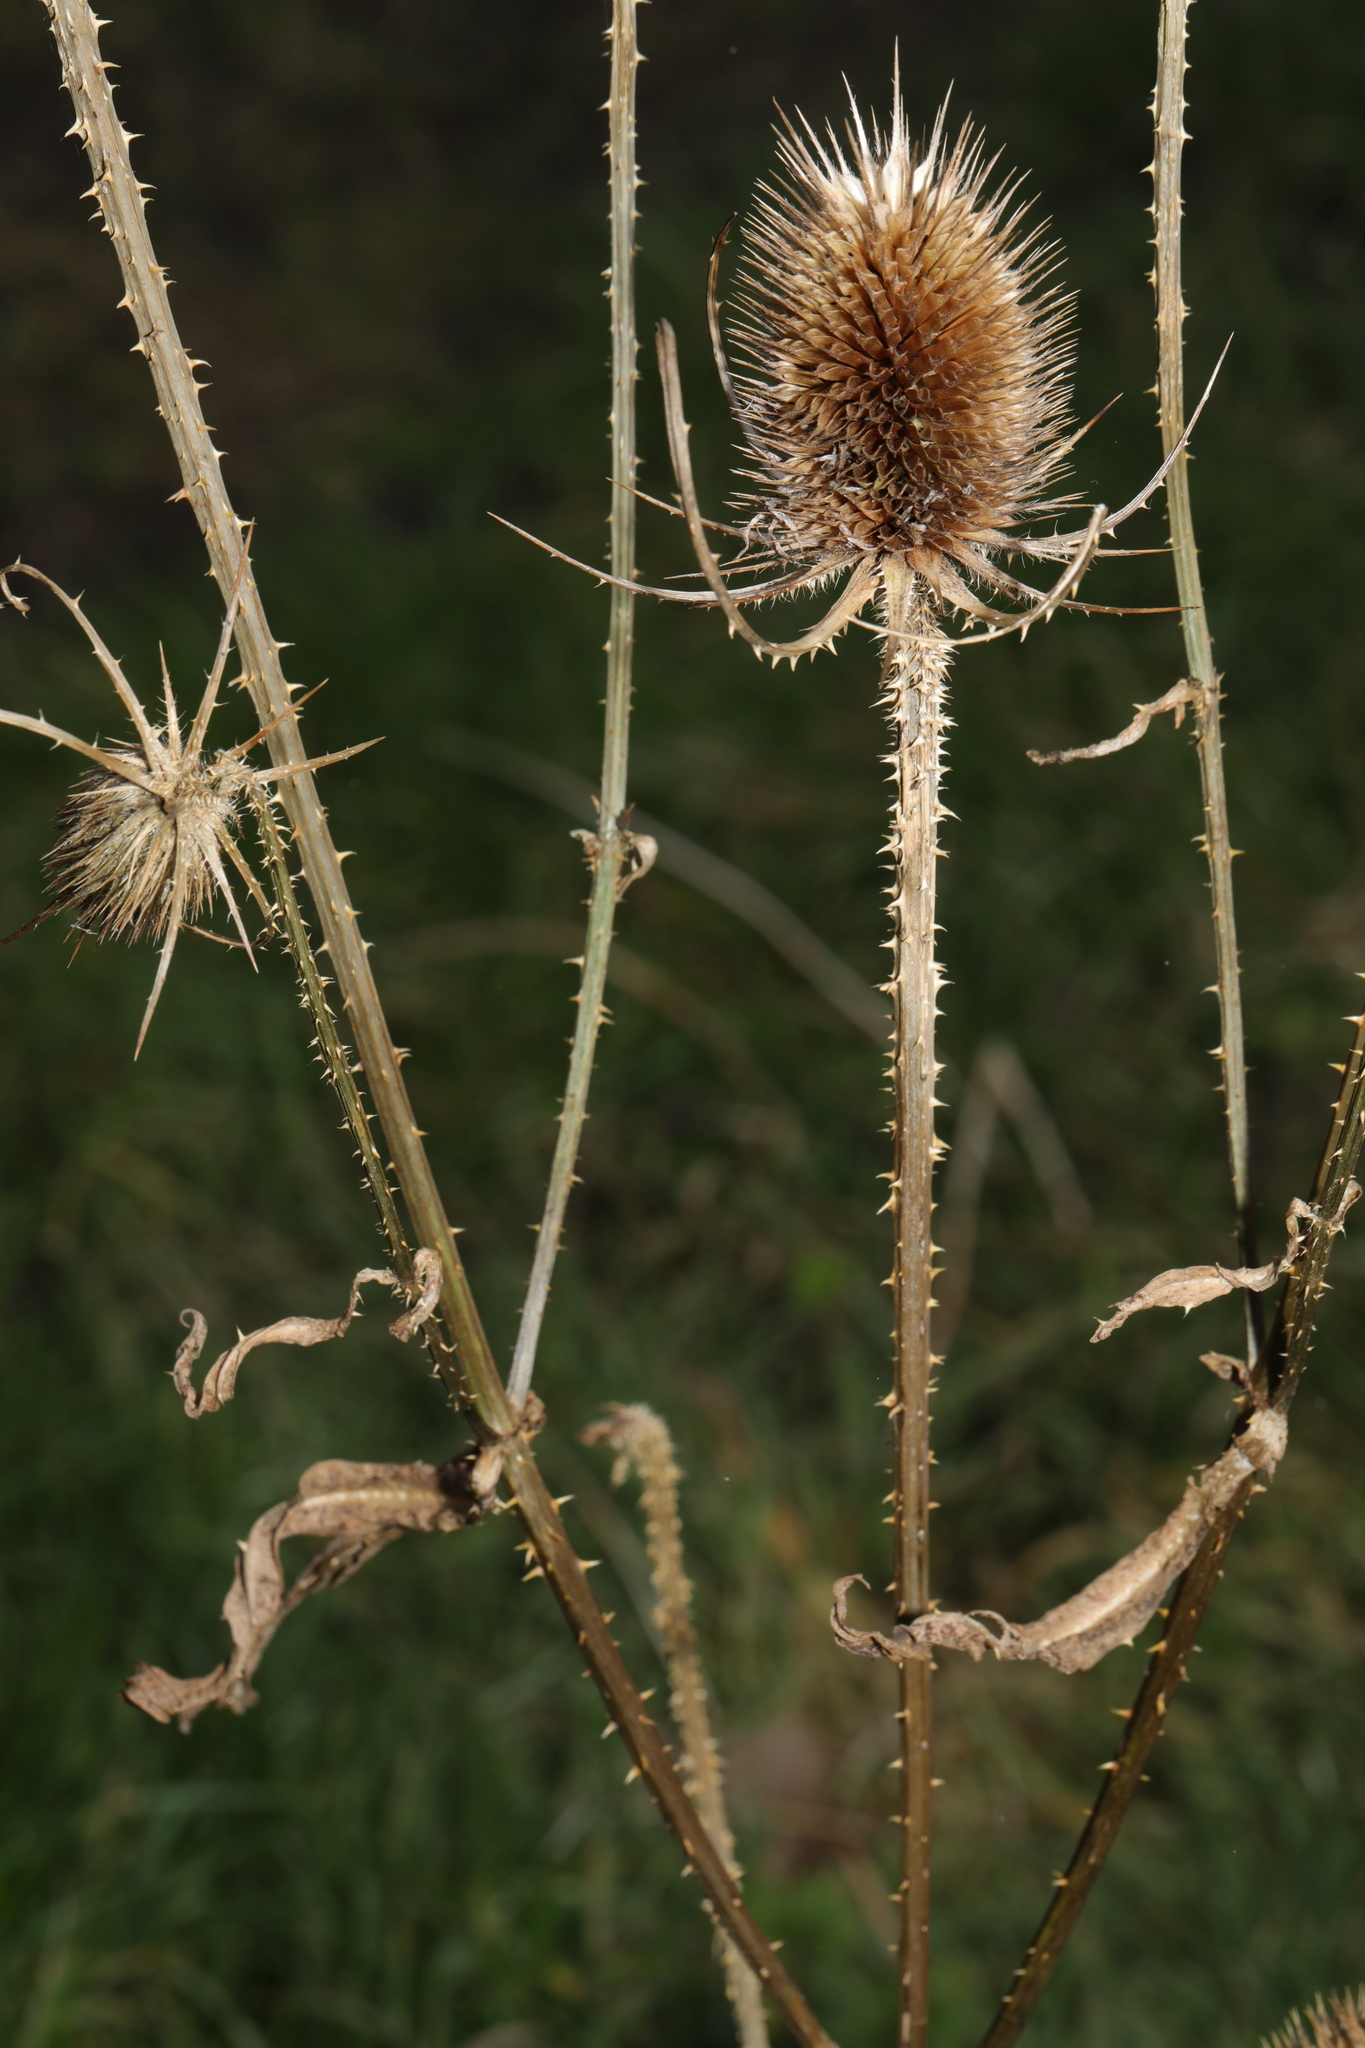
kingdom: Plantae
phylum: Tracheophyta
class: Magnoliopsida
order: Dipsacales
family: Caprifoliaceae
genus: Dipsacus
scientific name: Dipsacus fullonum
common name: Teasel
